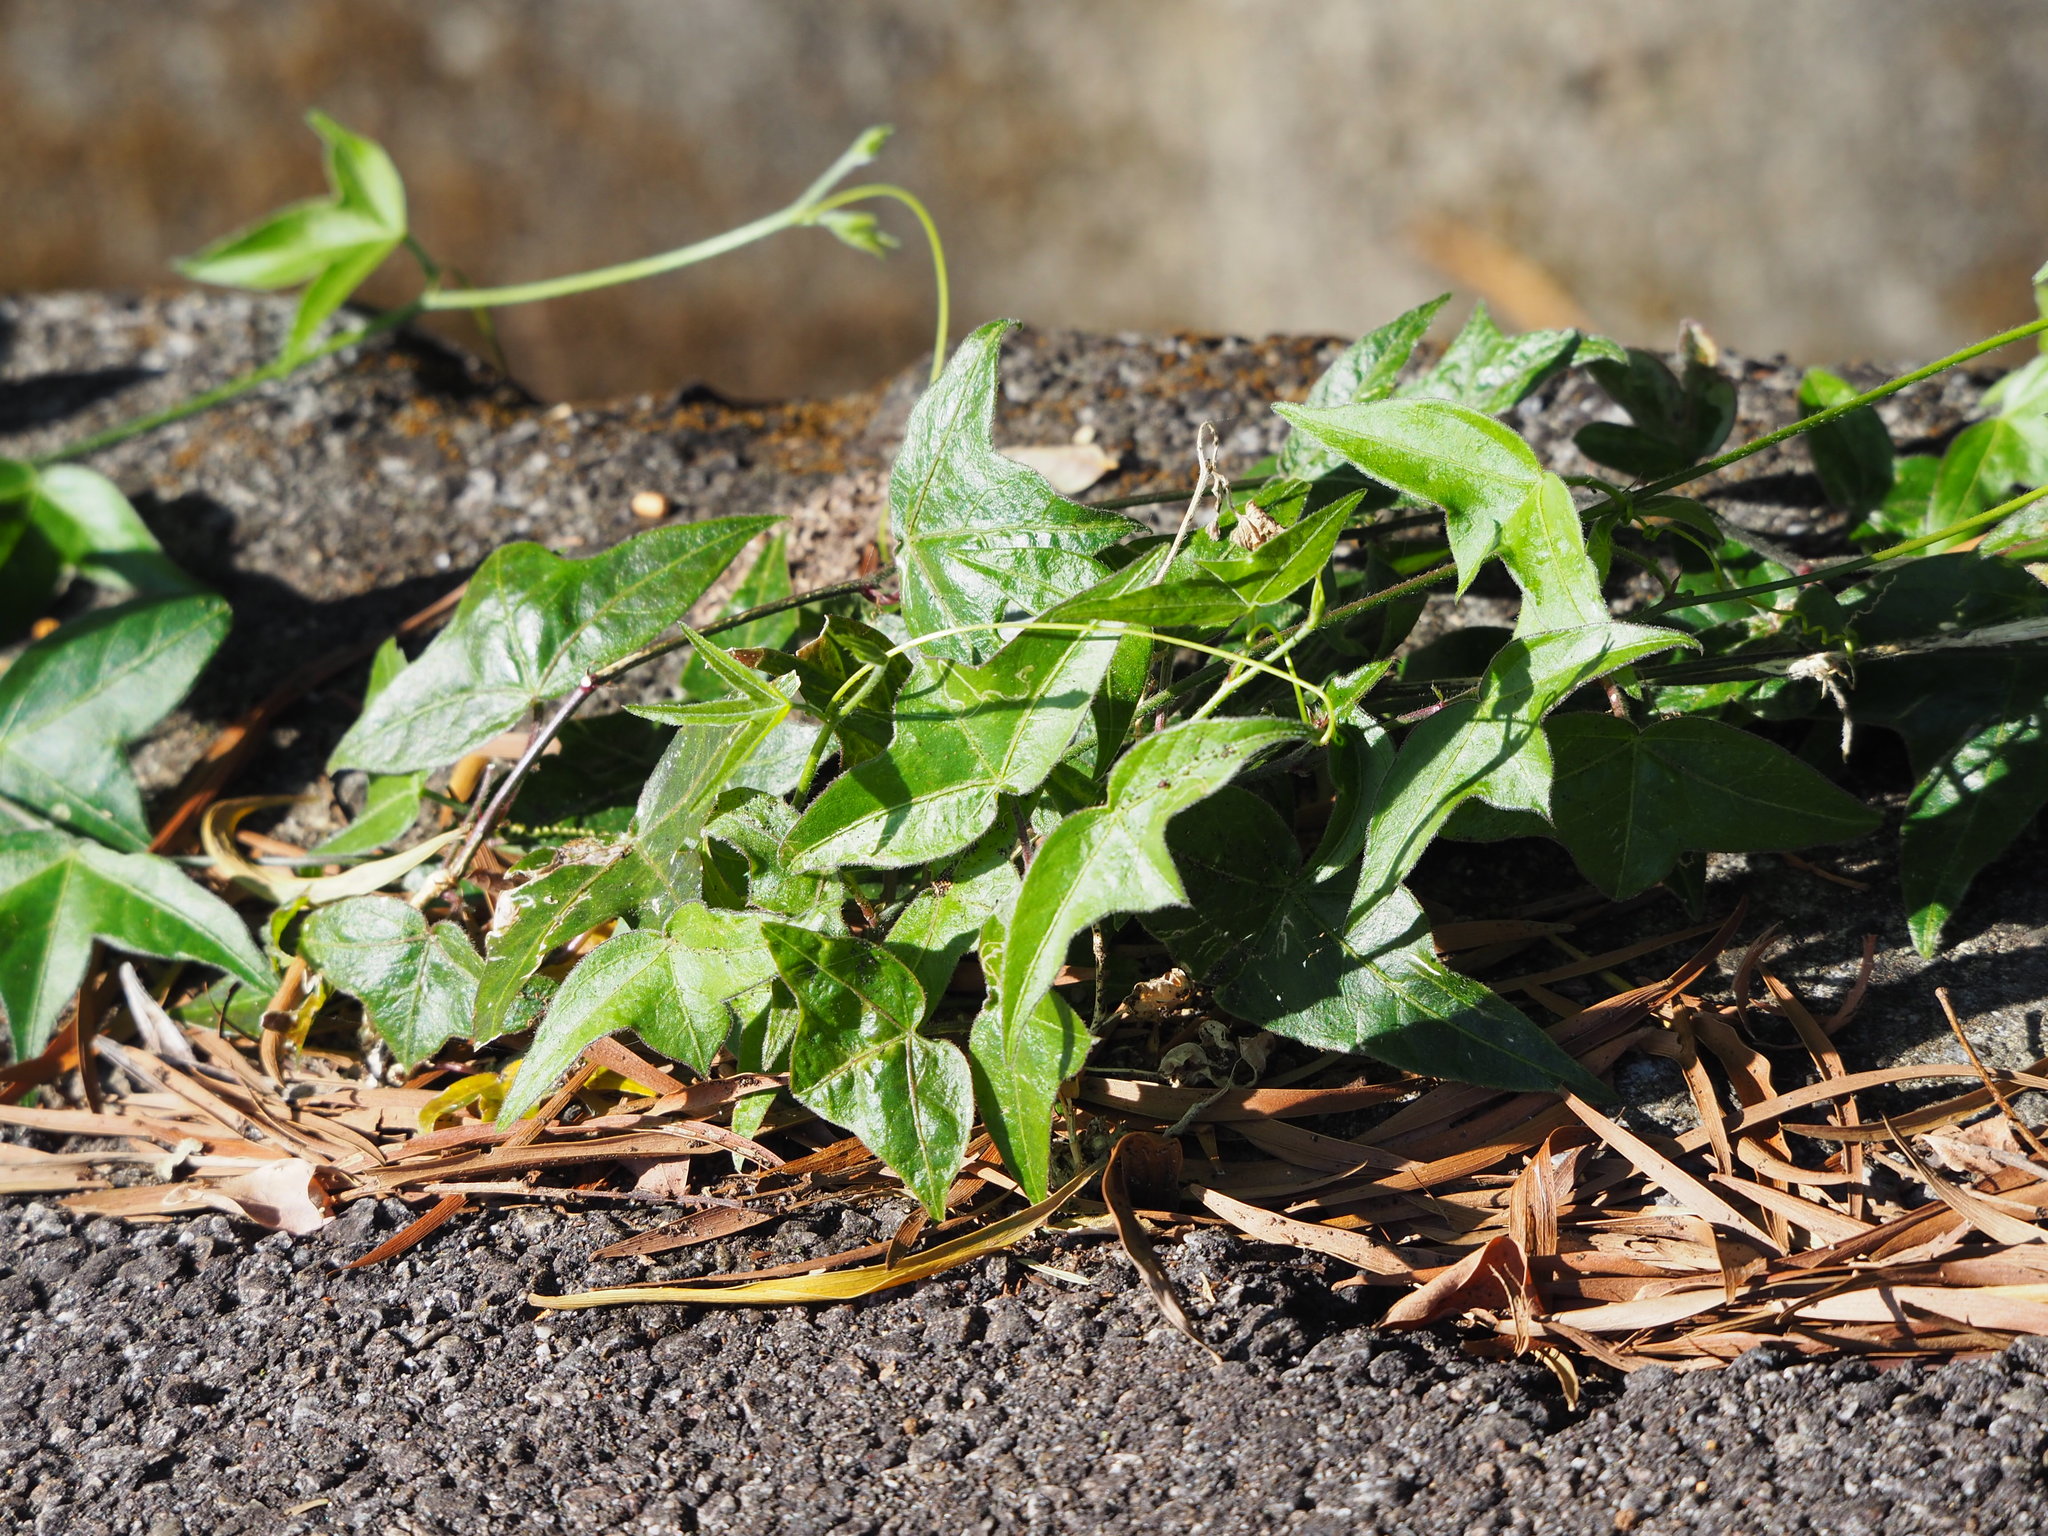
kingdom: Plantae
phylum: Tracheophyta
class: Magnoliopsida
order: Malpighiales
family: Passifloraceae
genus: Passiflora
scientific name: Passiflora suberosa
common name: Wild passionfruit
